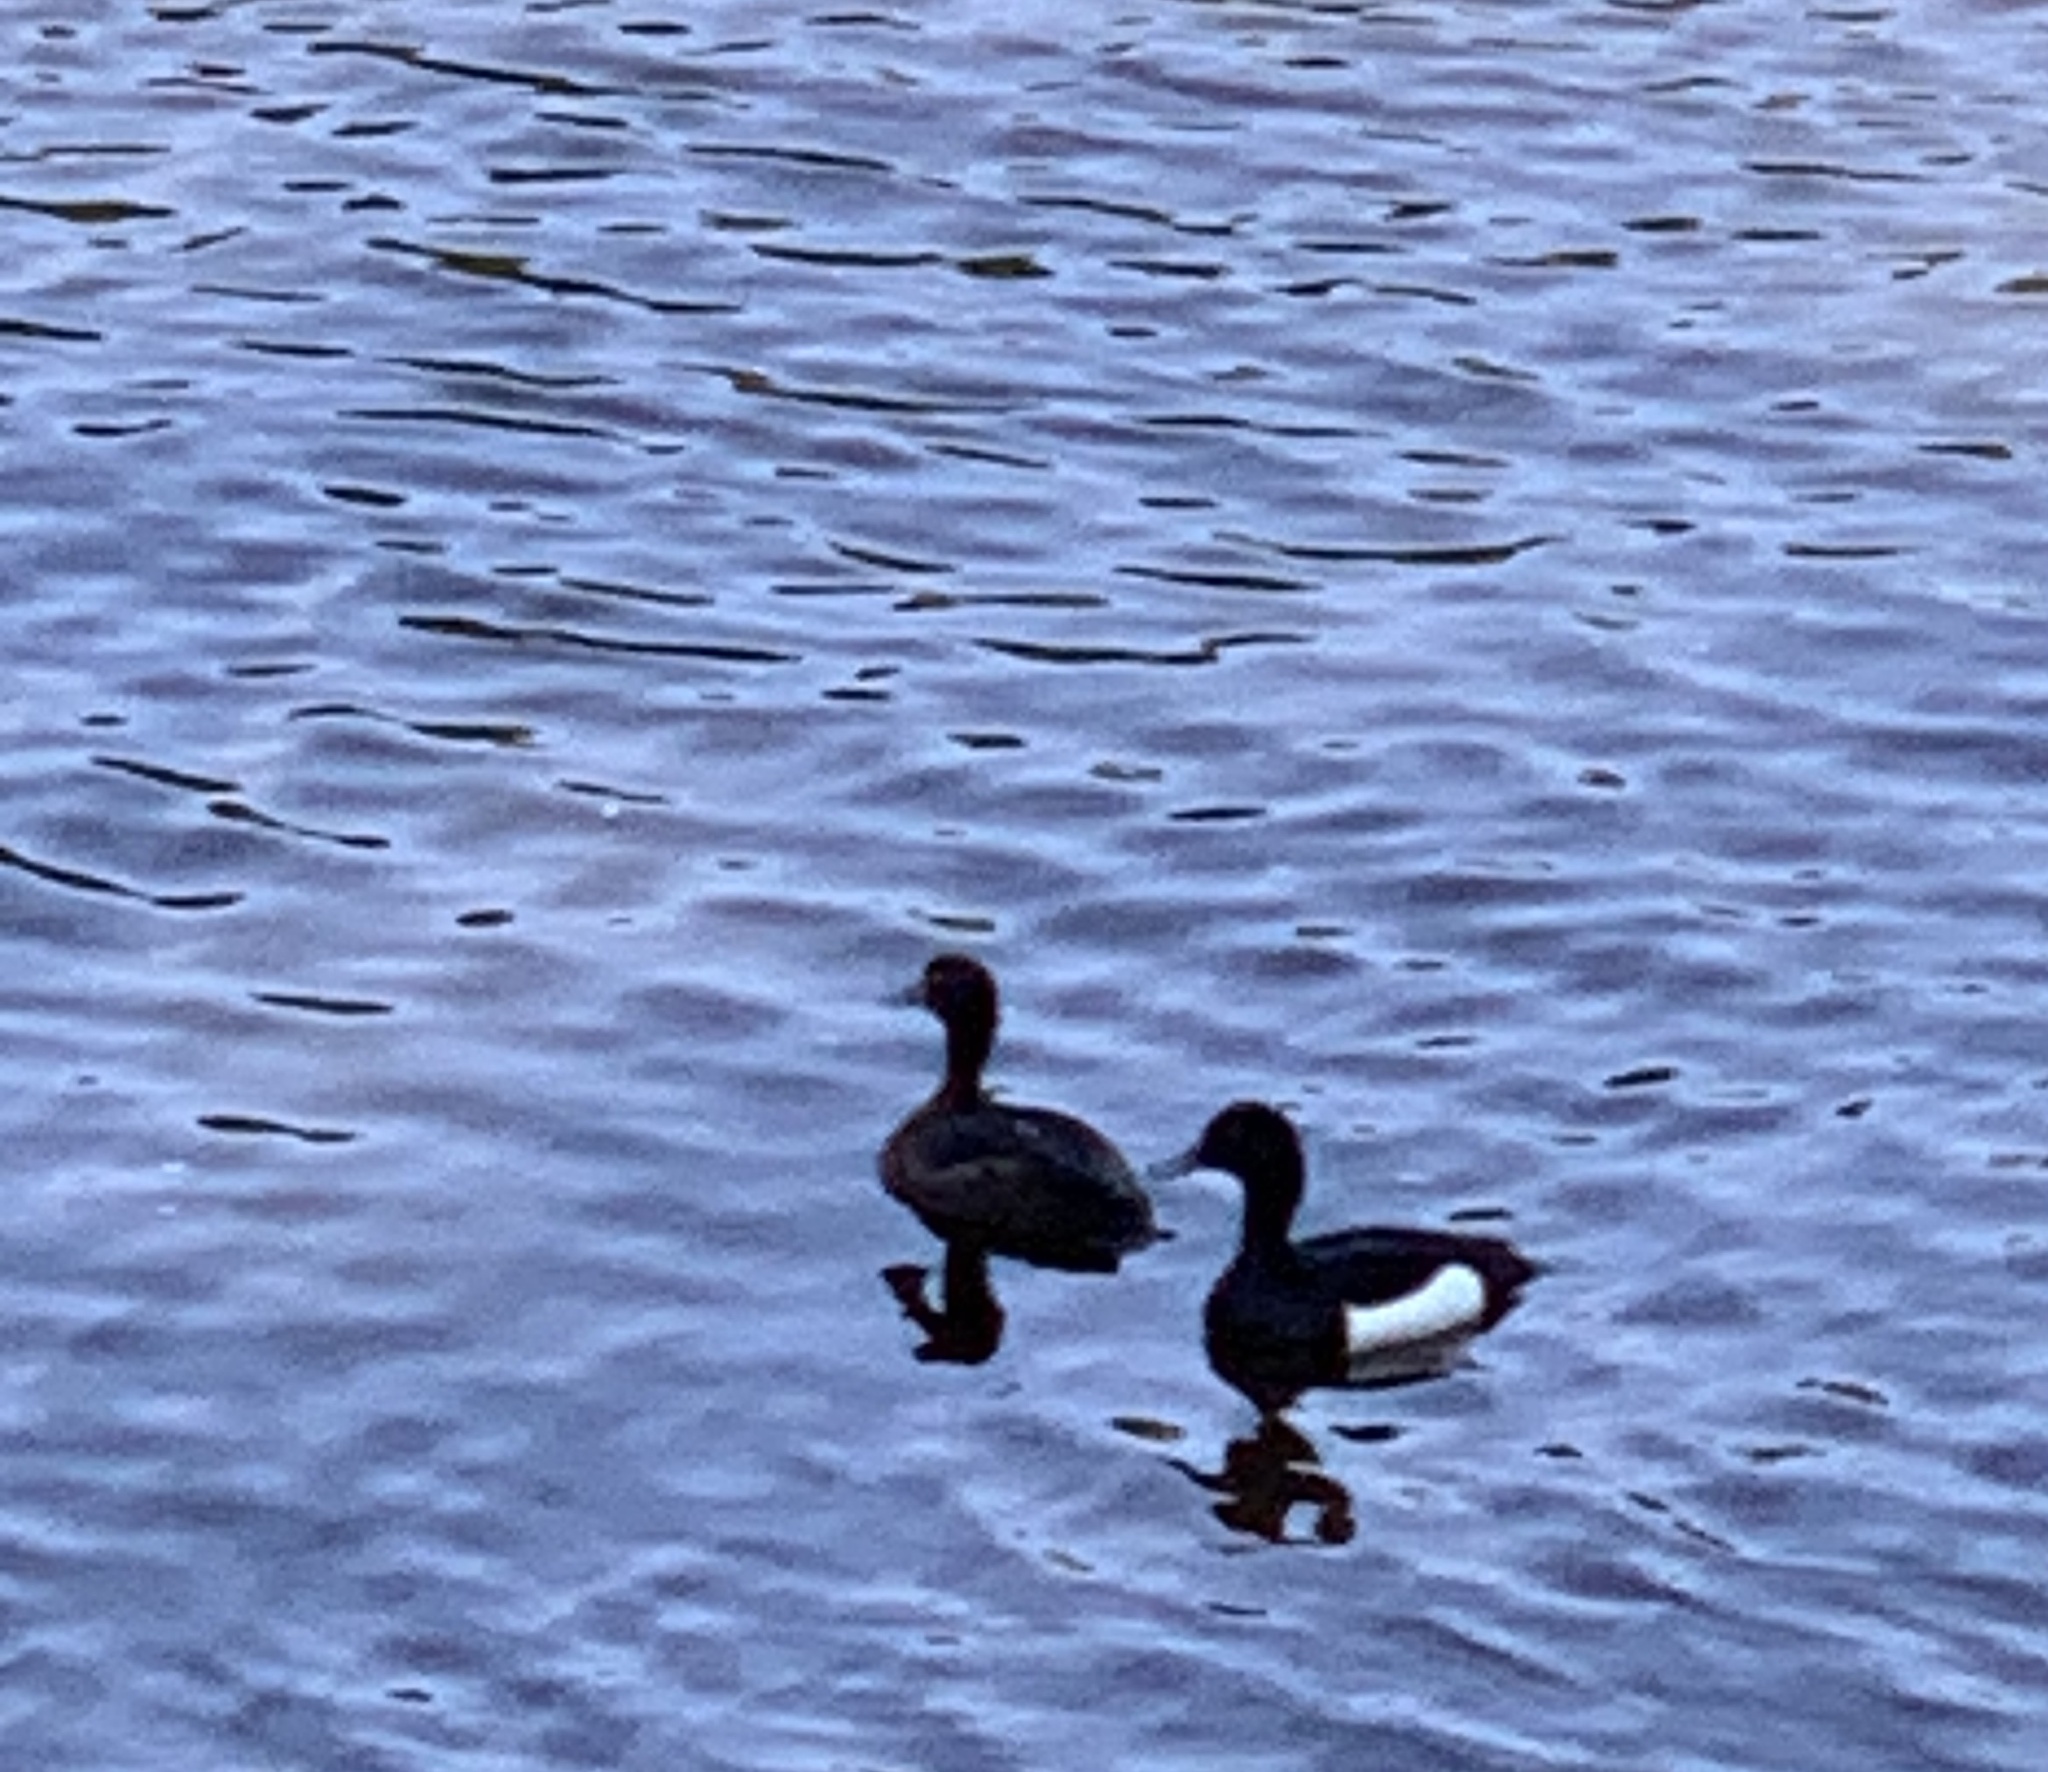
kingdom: Animalia
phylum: Chordata
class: Aves
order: Anseriformes
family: Anatidae
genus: Aythya
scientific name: Aythya fuligula
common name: Tufted duck
